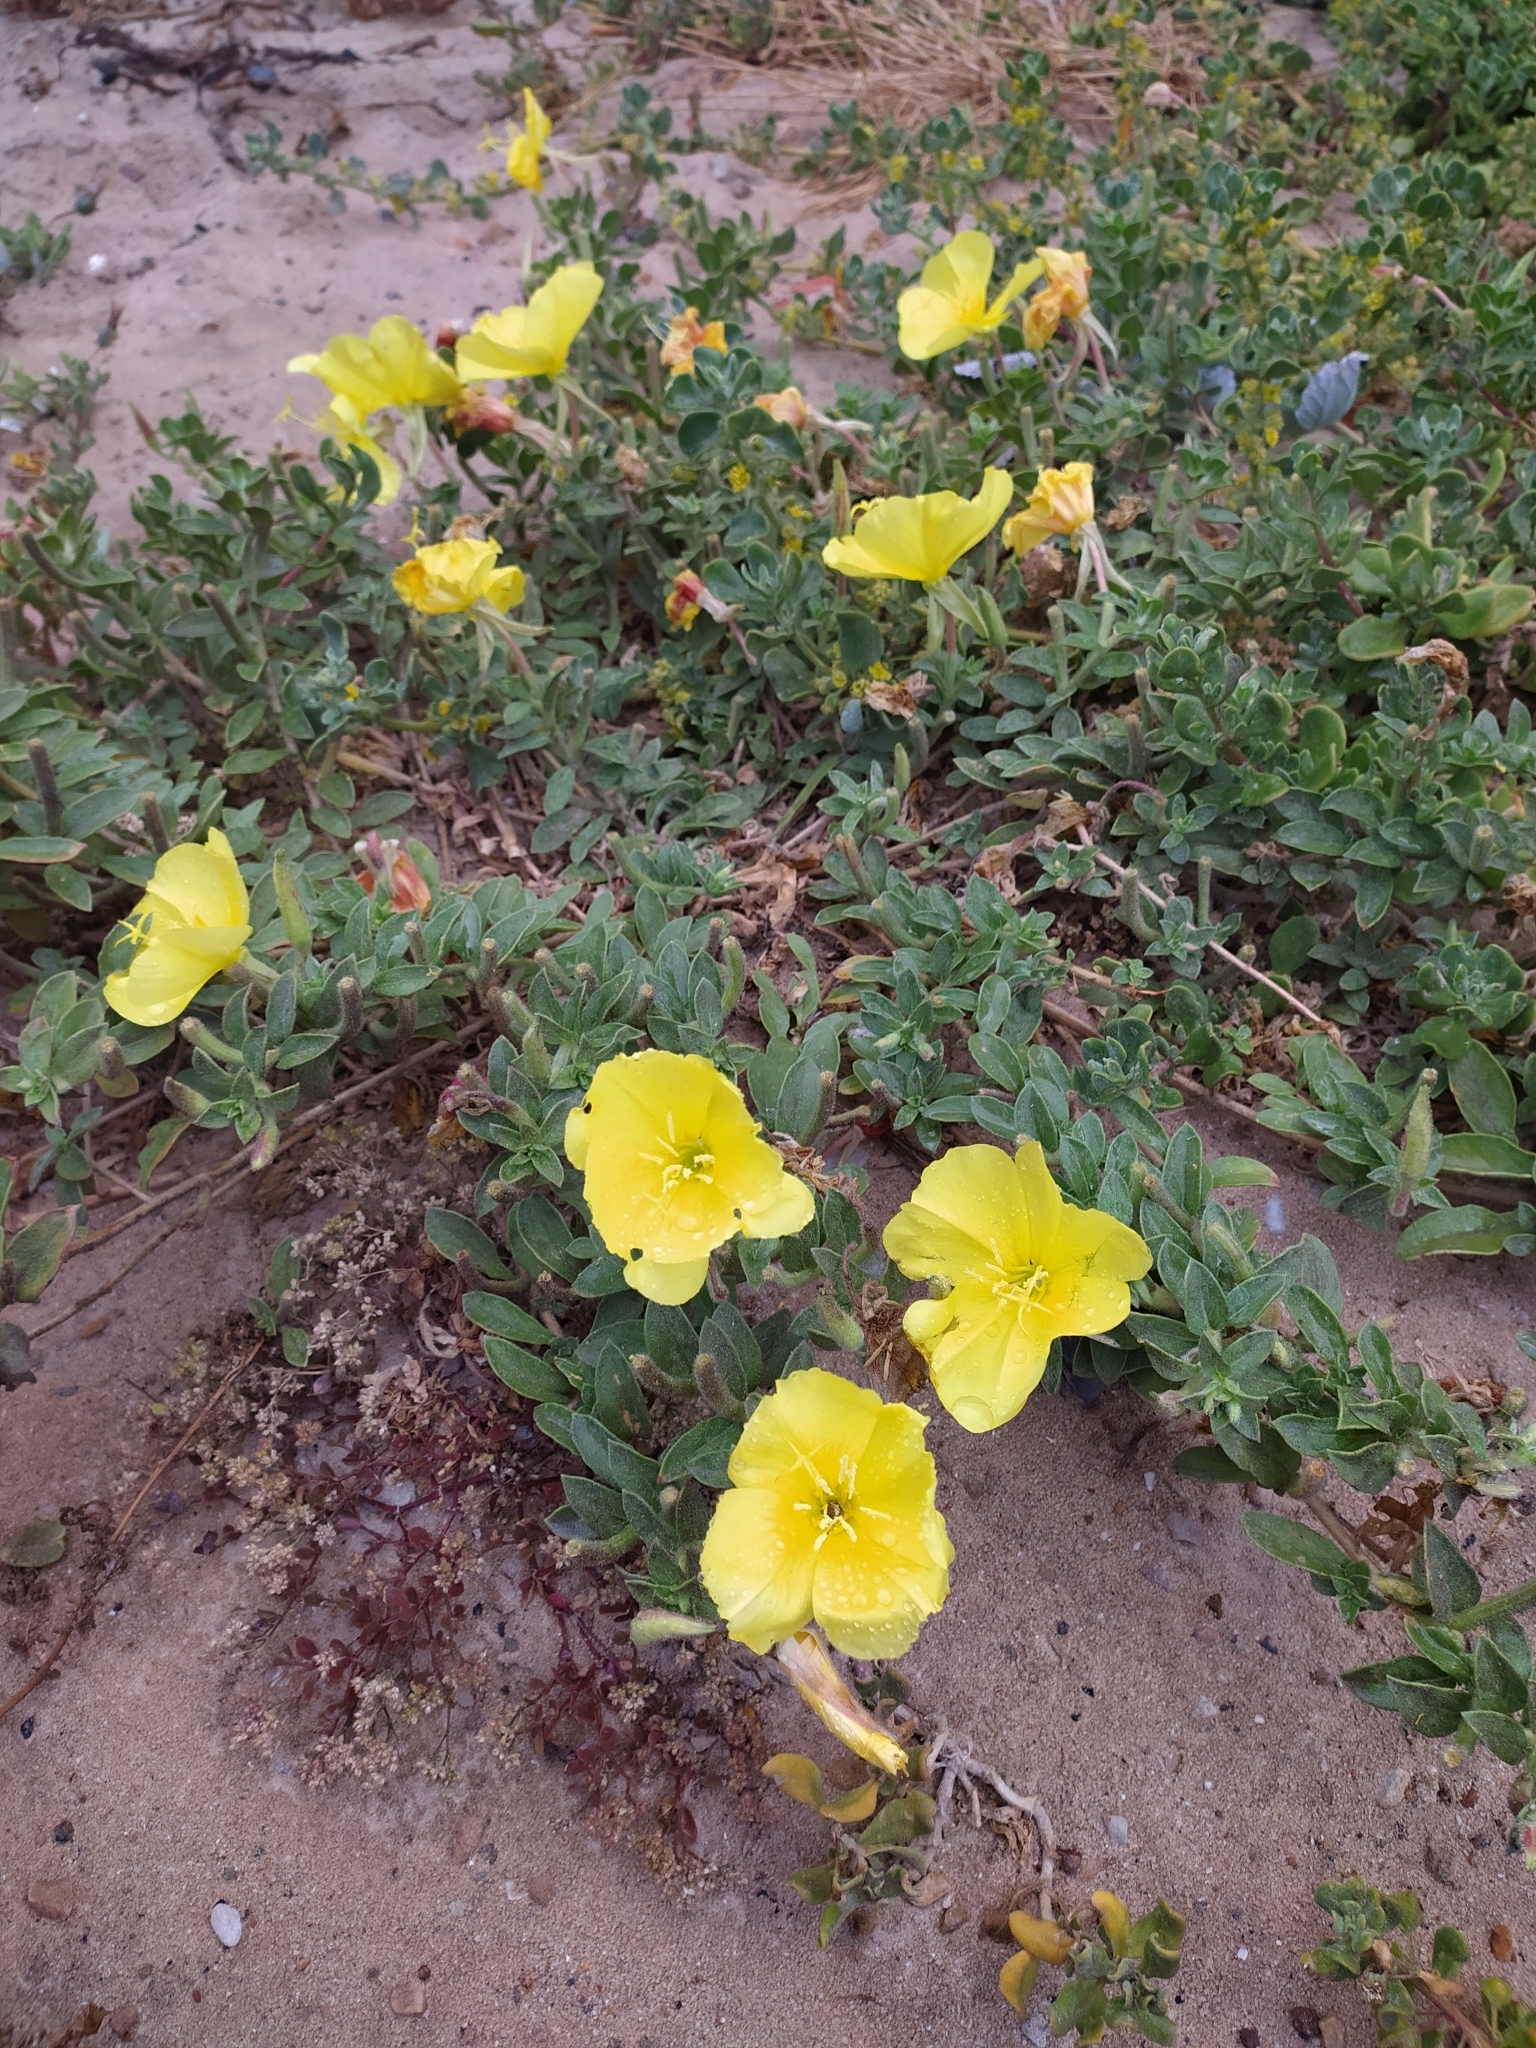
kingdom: Plantae
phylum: Tracheophyta
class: Magnoliopsida
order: Myrtales
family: Onagraceae
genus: Oenothera
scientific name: Oenothera drummondii
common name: Beach evening-primrose
